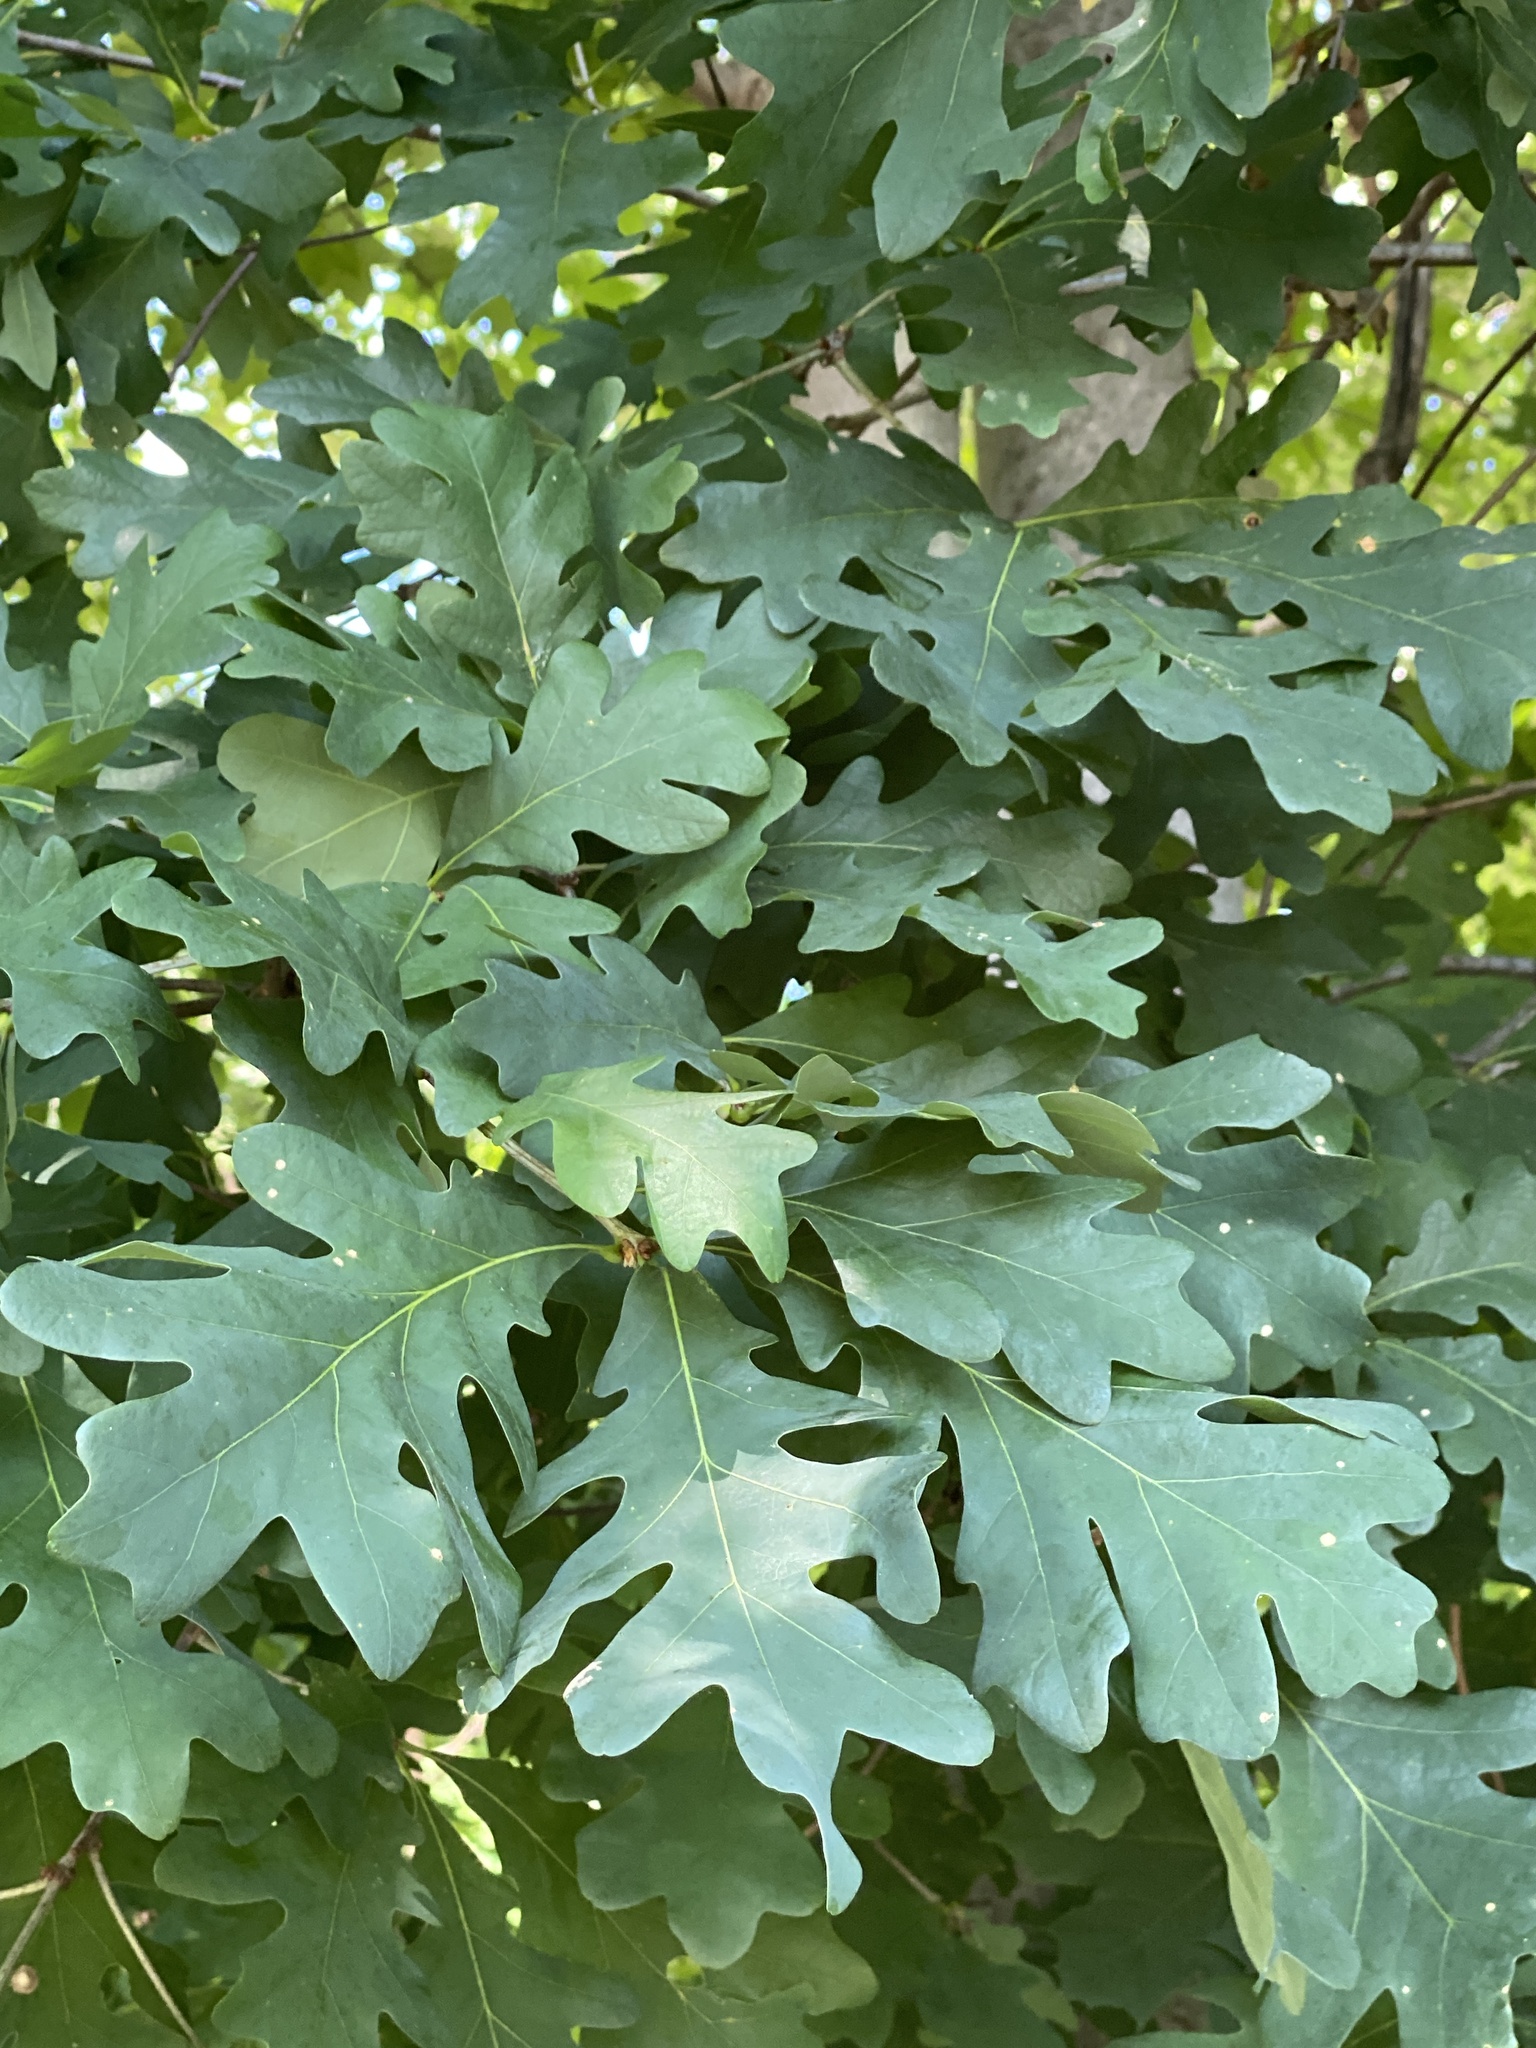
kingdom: Plantae
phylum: Tracheophyta
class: Magnoliopsida
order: Fagales
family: Fagaceae
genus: Quercus
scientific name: Quercus alba
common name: White oak
